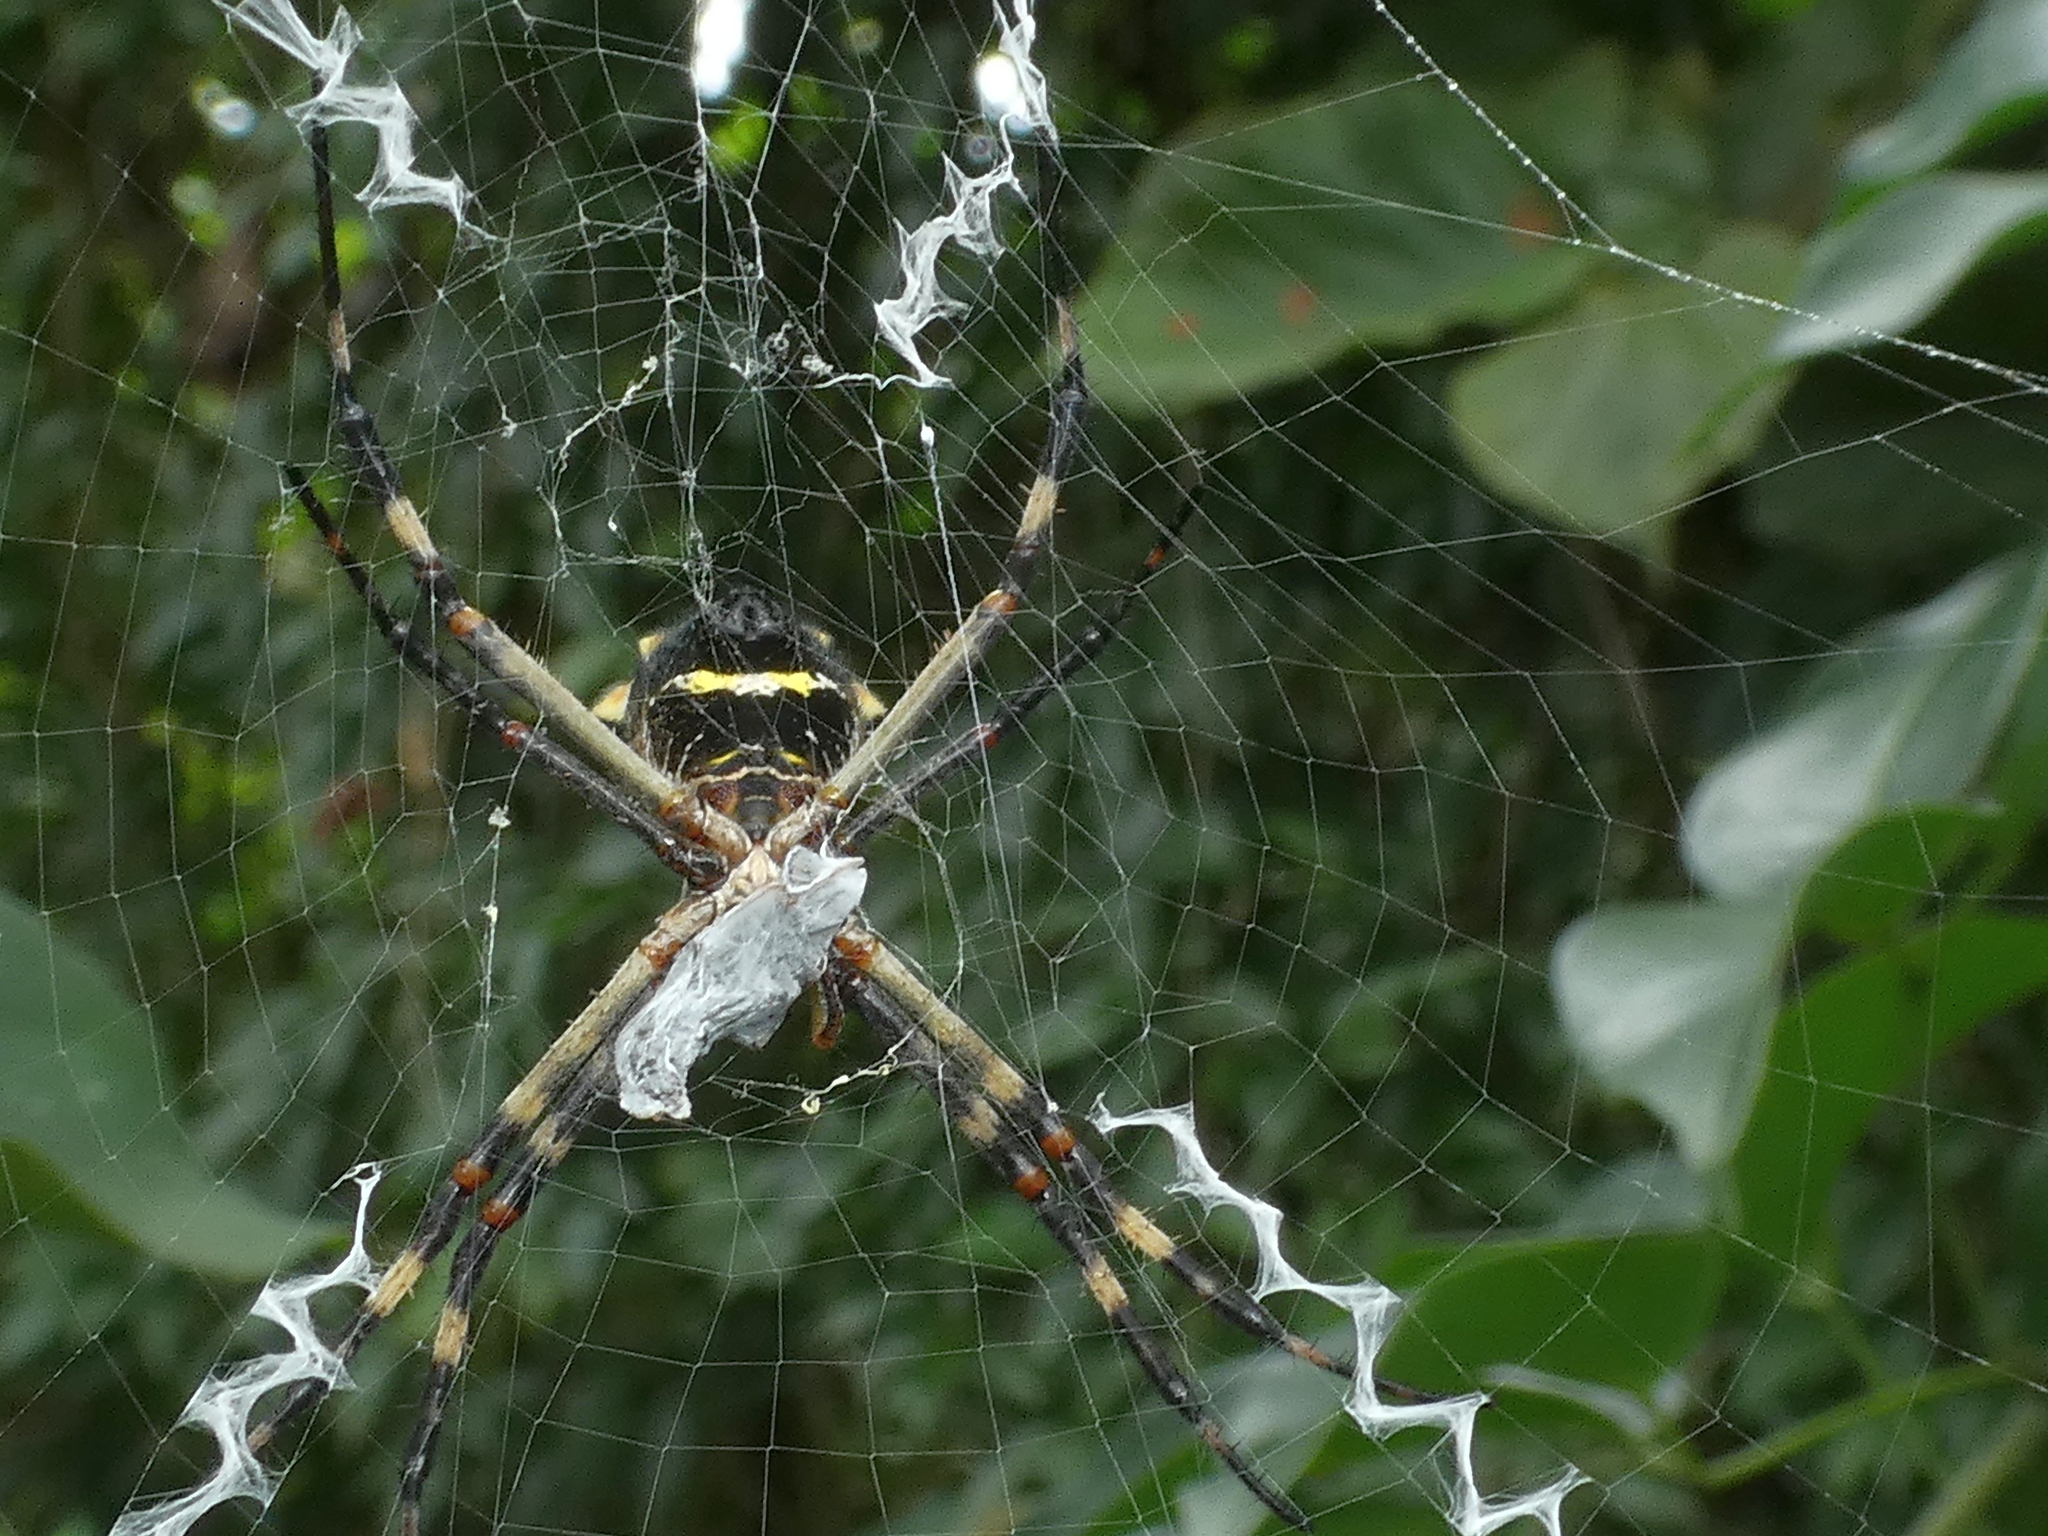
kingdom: Animalia
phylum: Arthropoda
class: Arachnida
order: Araneae
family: Araneidae
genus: Argiope
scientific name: Argiope argentata
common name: Orb weavers
